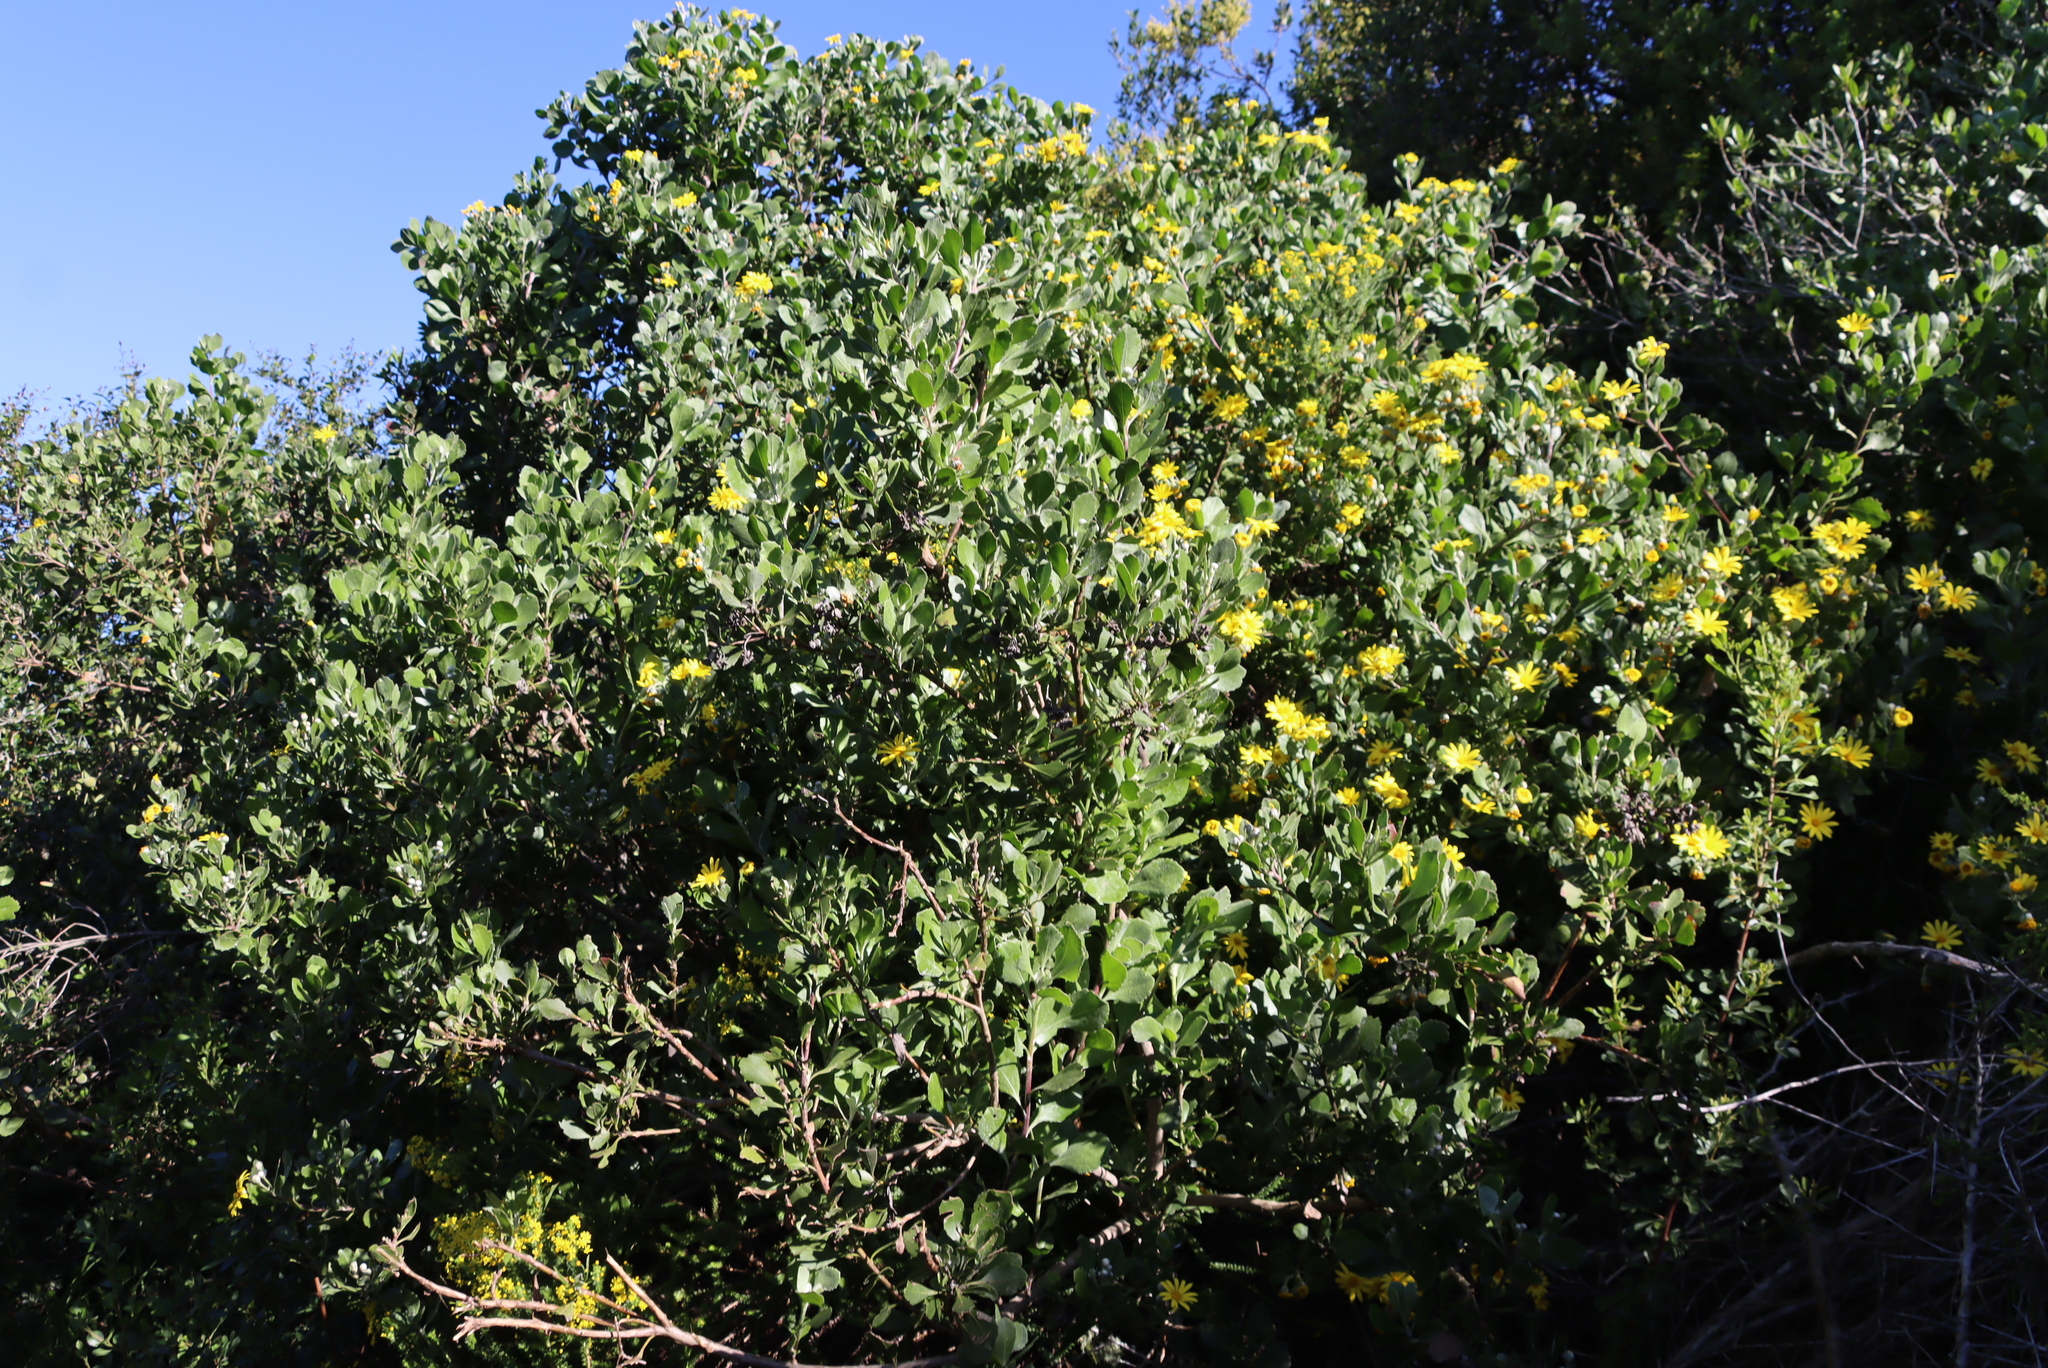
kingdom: Plantae
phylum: Tracheophyta
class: Magnoliopsida
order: Asterales
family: Asteraceae
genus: Osteospermum
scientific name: Osteospermum moniliferum
